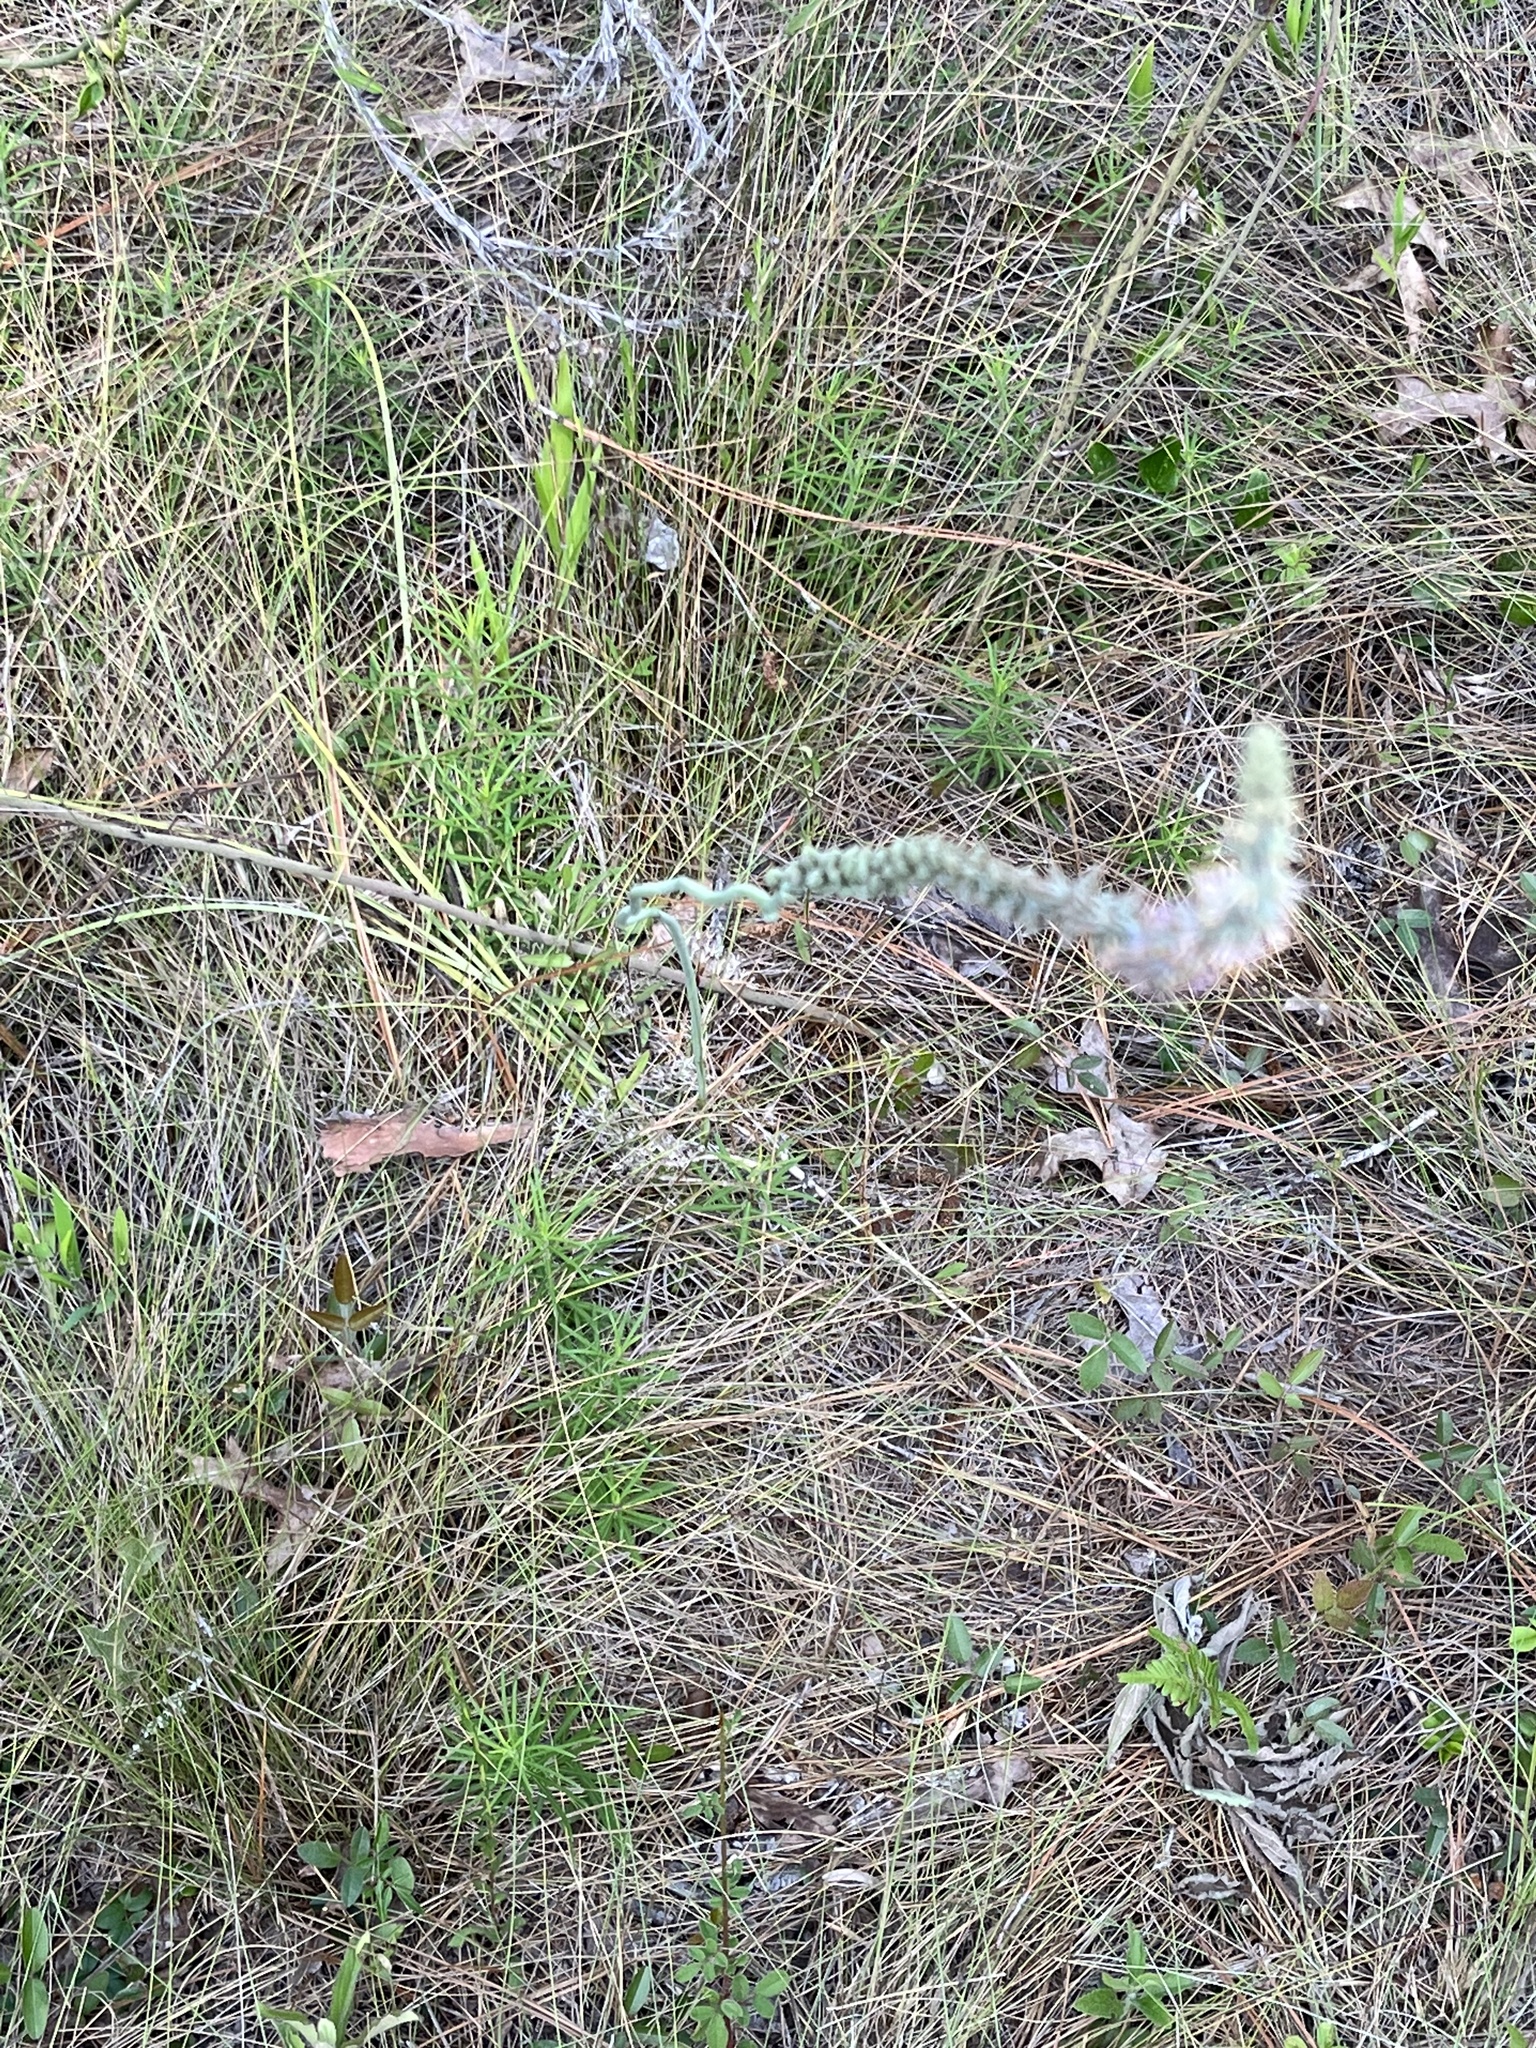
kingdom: Plantae
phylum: Tracheophyta
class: Liliopsida
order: Liliales
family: Melanthiaceae
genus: Schoenocaulon
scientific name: Schoenocaulon dubium
